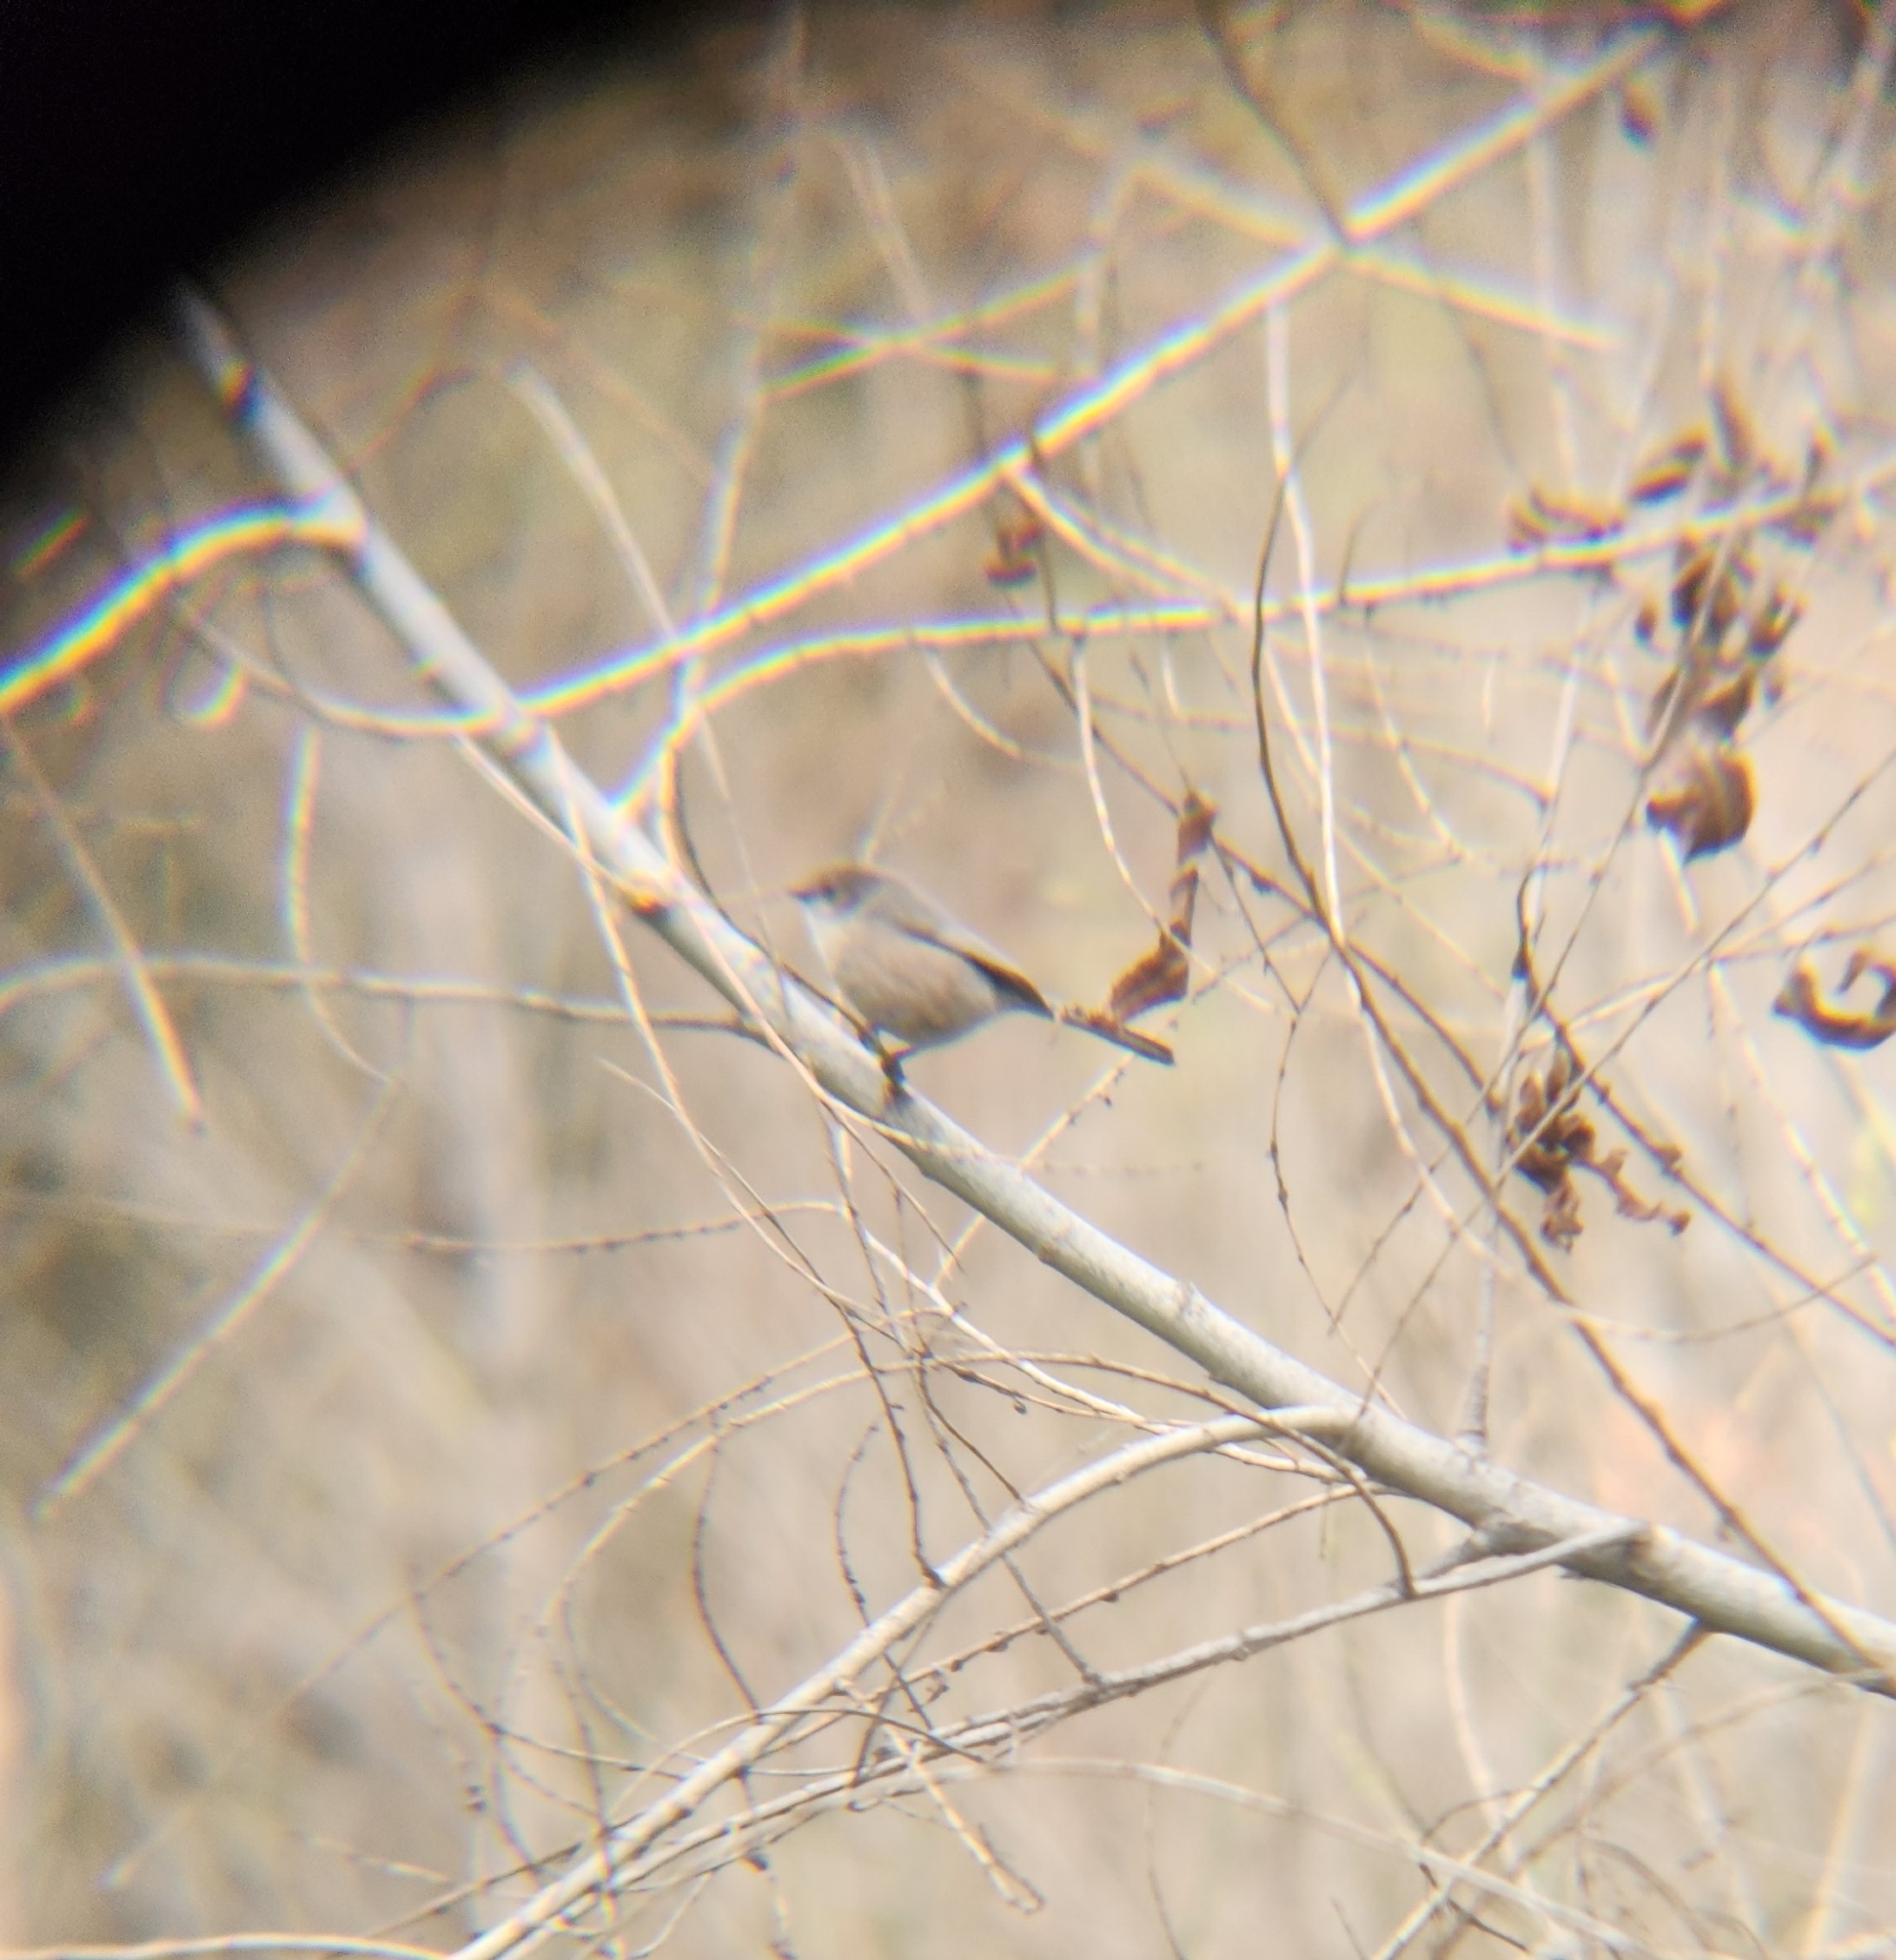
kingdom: Animalia
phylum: Chordata
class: Aves
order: Passeriformes
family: Aegithalidae
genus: Psaltriparus
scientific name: Psaltriparus minimus
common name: American bushtit
